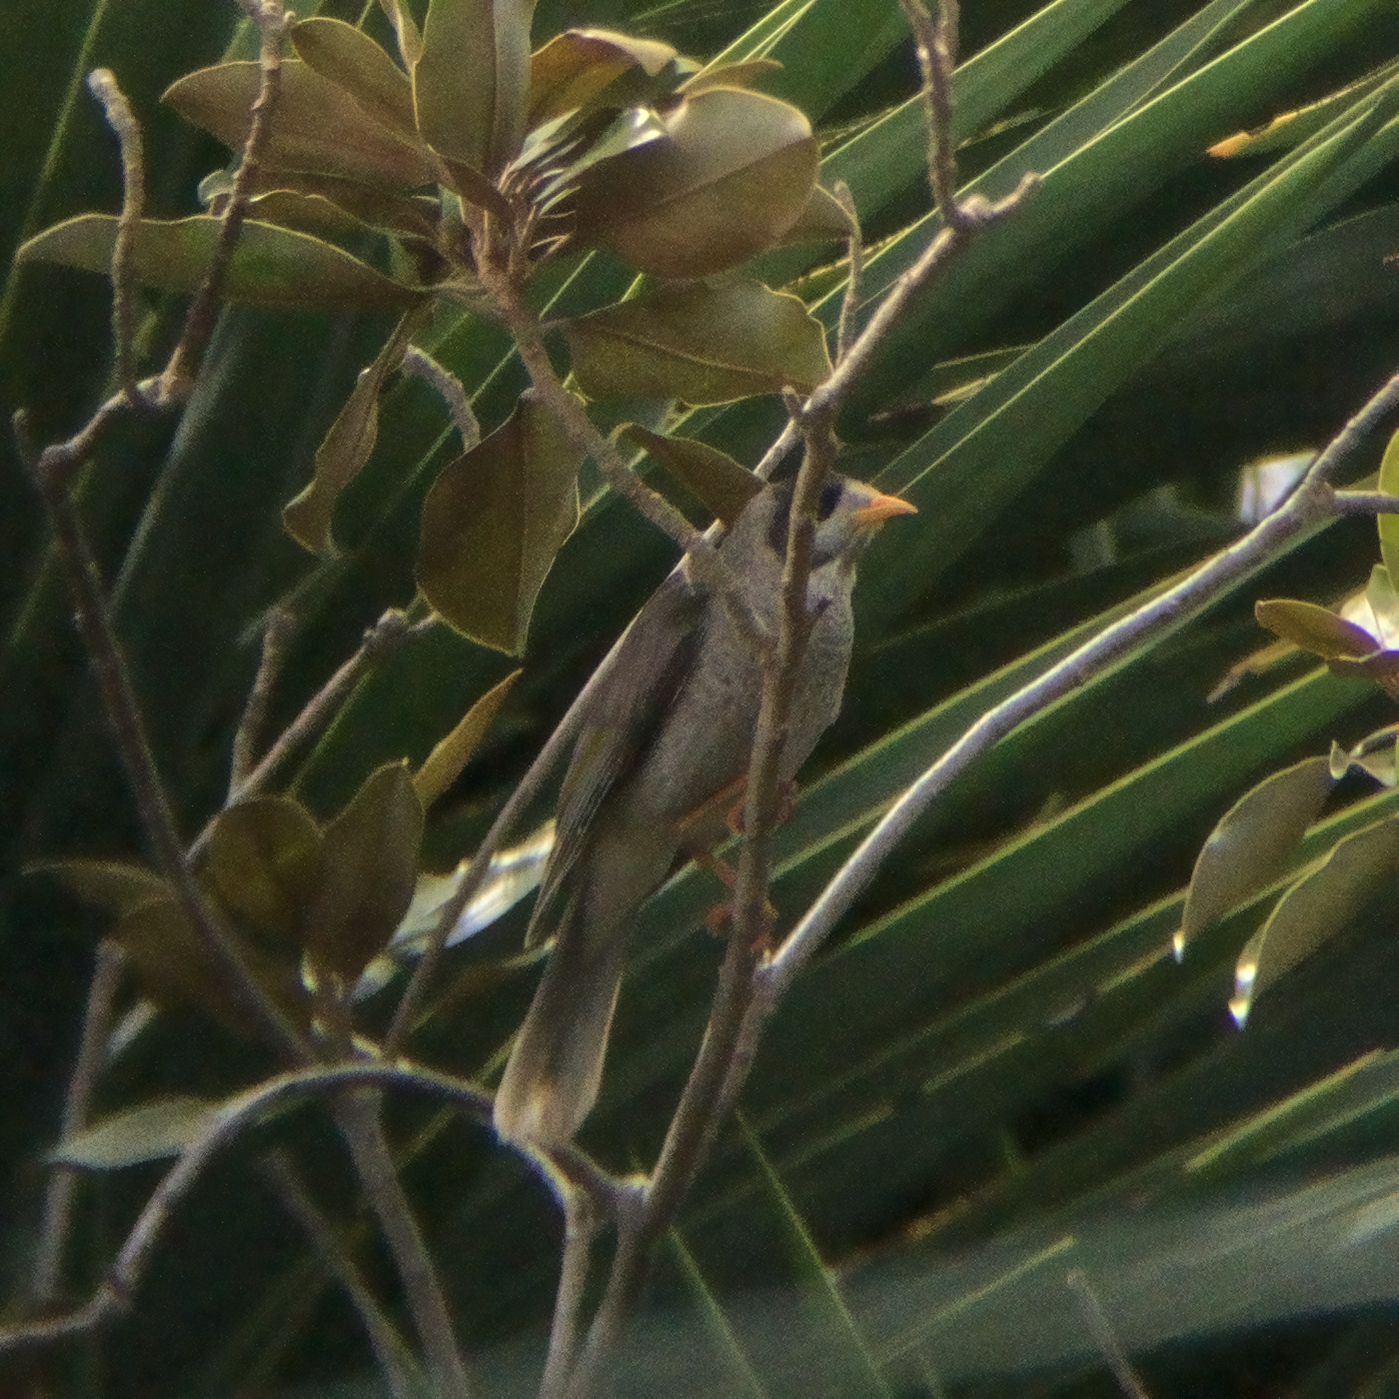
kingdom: Animalia
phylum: Chordata
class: Aves
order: Passeriformes
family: Meliphagidae
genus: Manorina
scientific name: Manorina melanocephala
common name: Noisy miner
